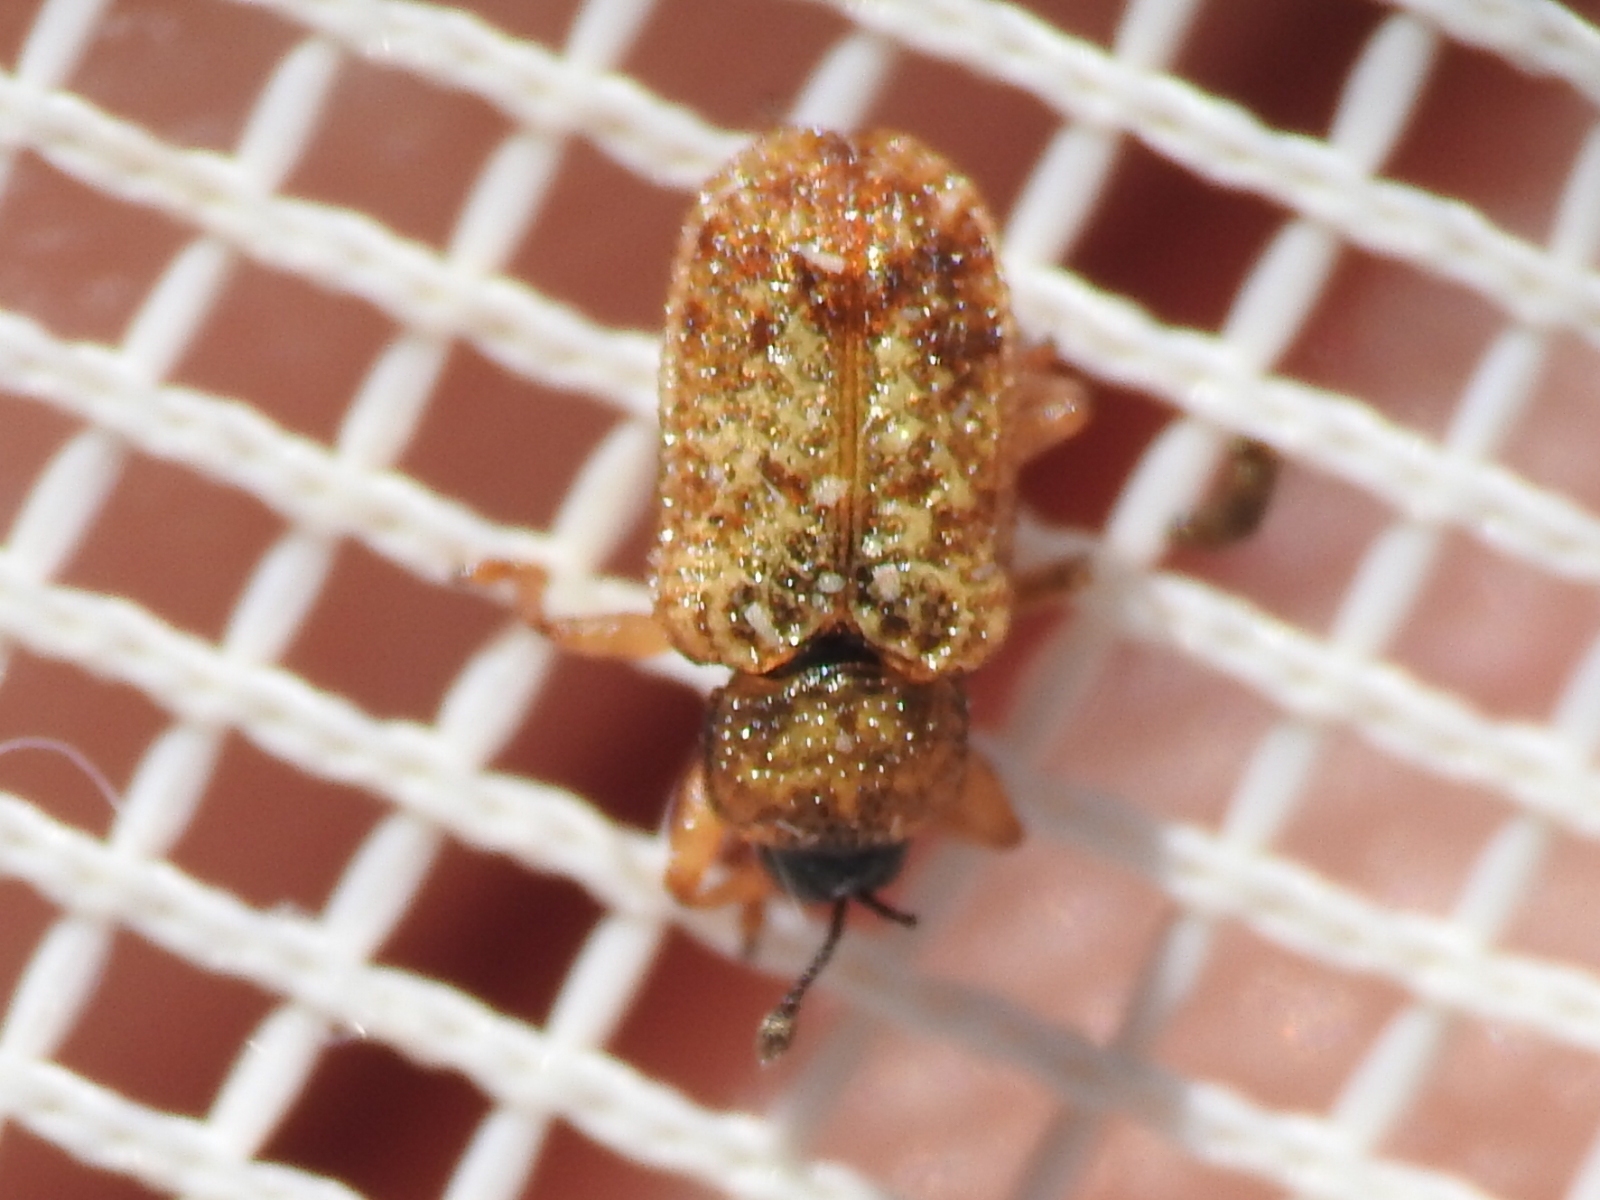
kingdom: Animalia
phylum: Arthropoda
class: Insecta
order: Coleoptera
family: Chrysomelidae
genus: Brachycoryna
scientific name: Brachycoryna pumila
